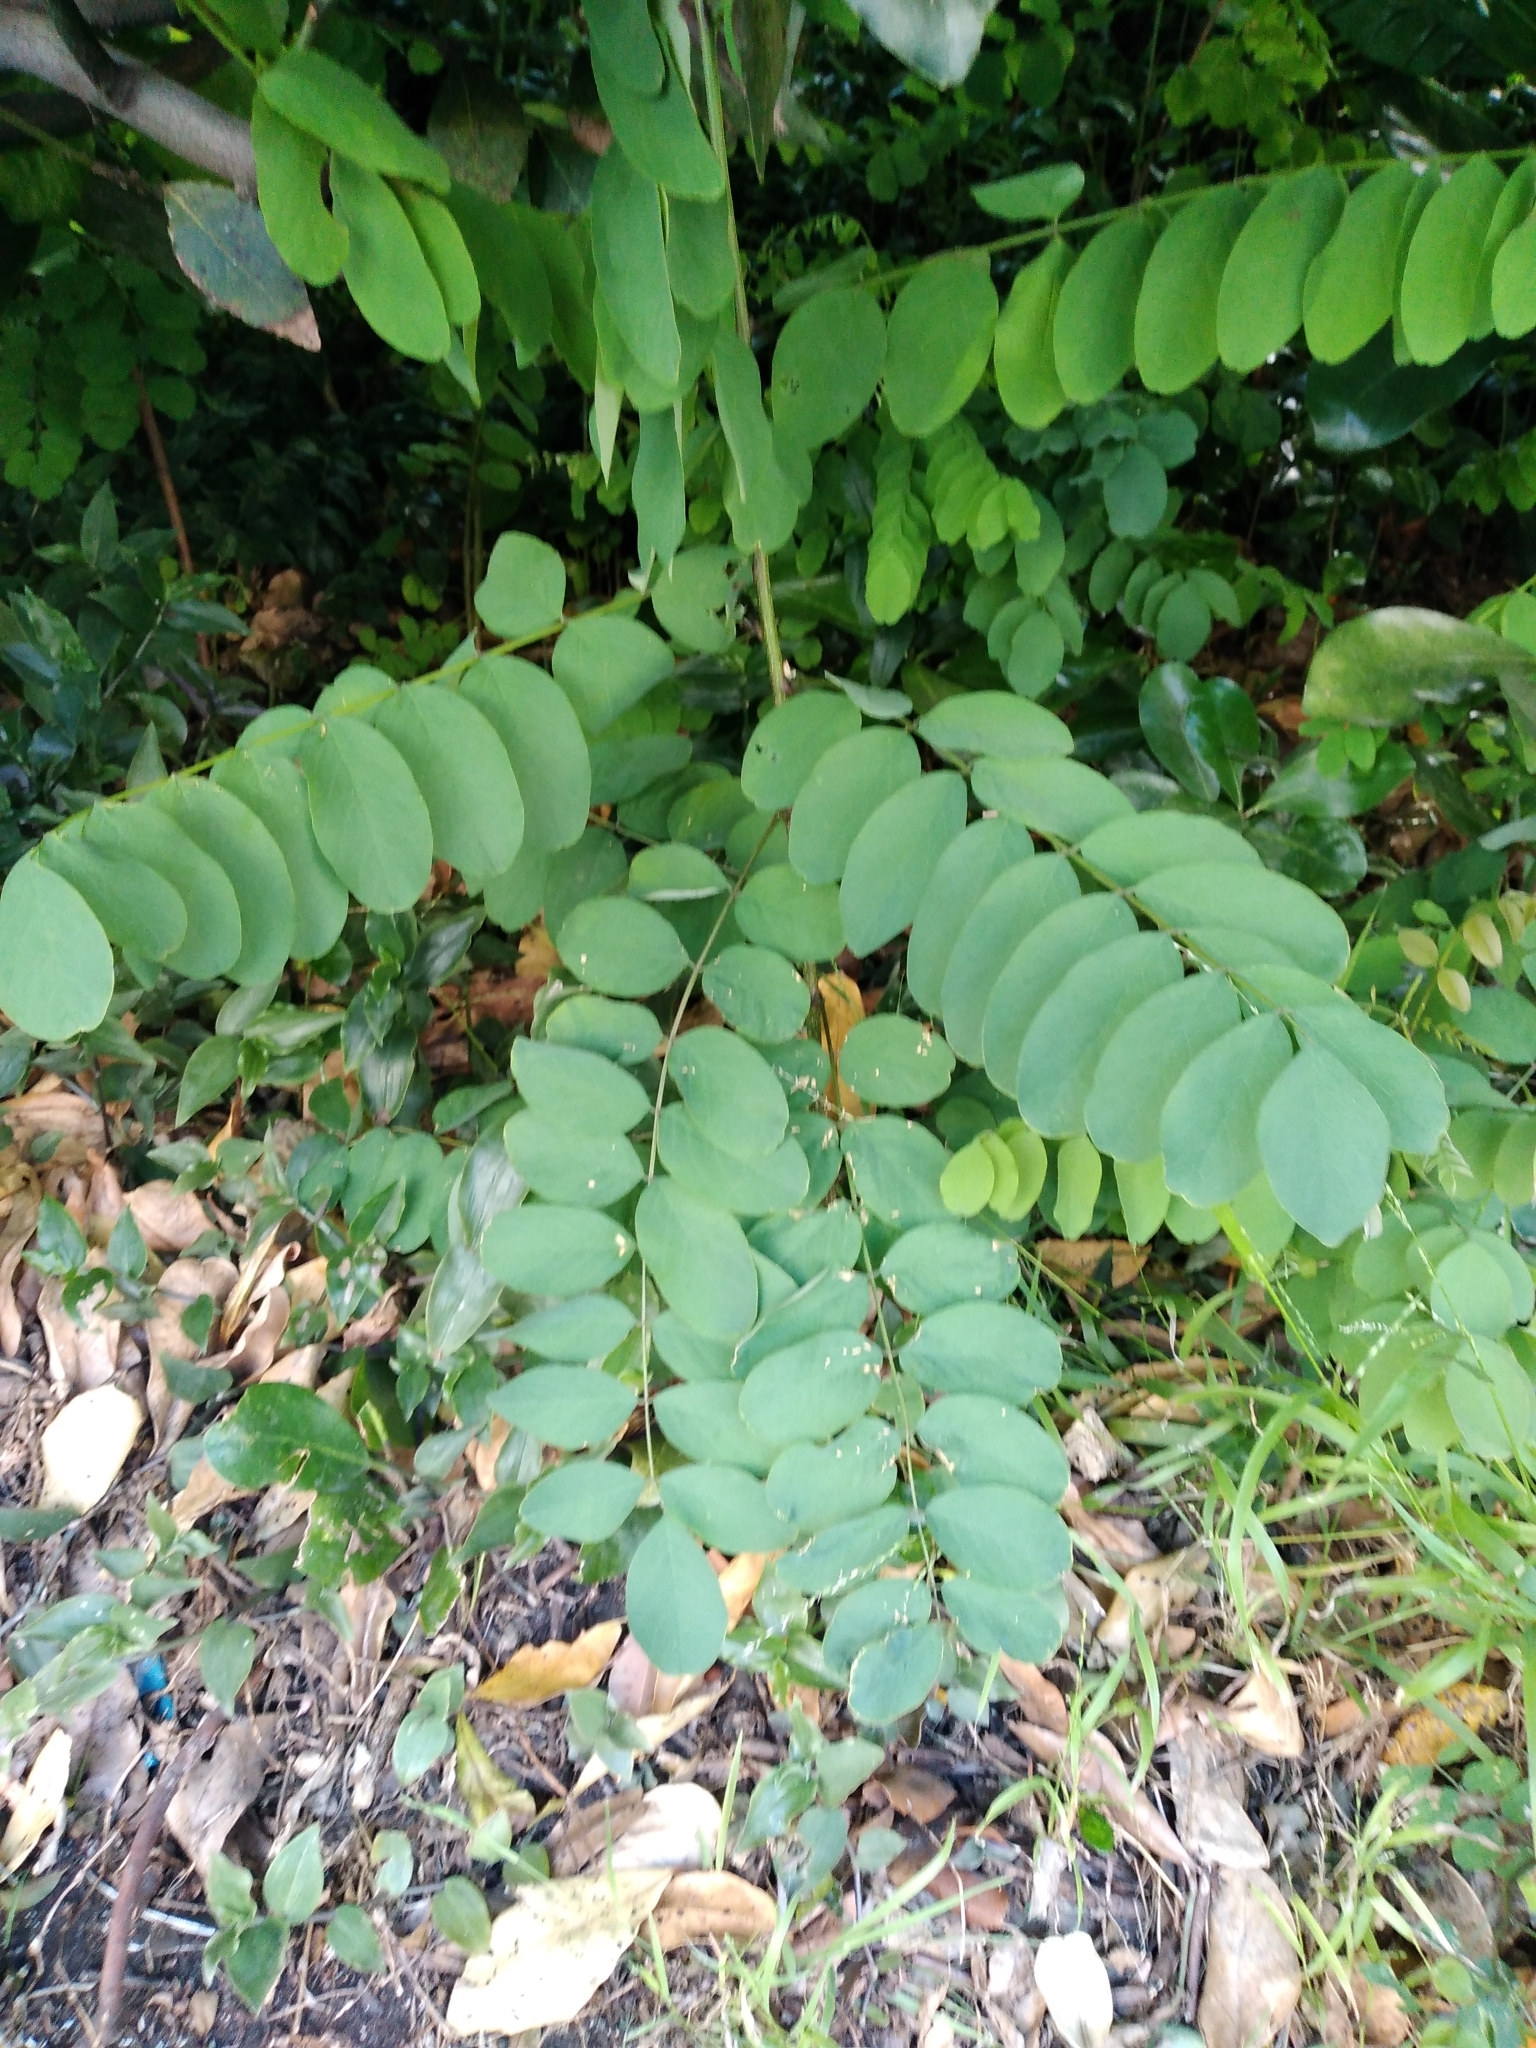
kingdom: Plantae
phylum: Tracheophyta
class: Magnoliopsida
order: Fabales
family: Fabaceae
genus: Robinia
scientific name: Robinia pseudoacacia
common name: Black locust
